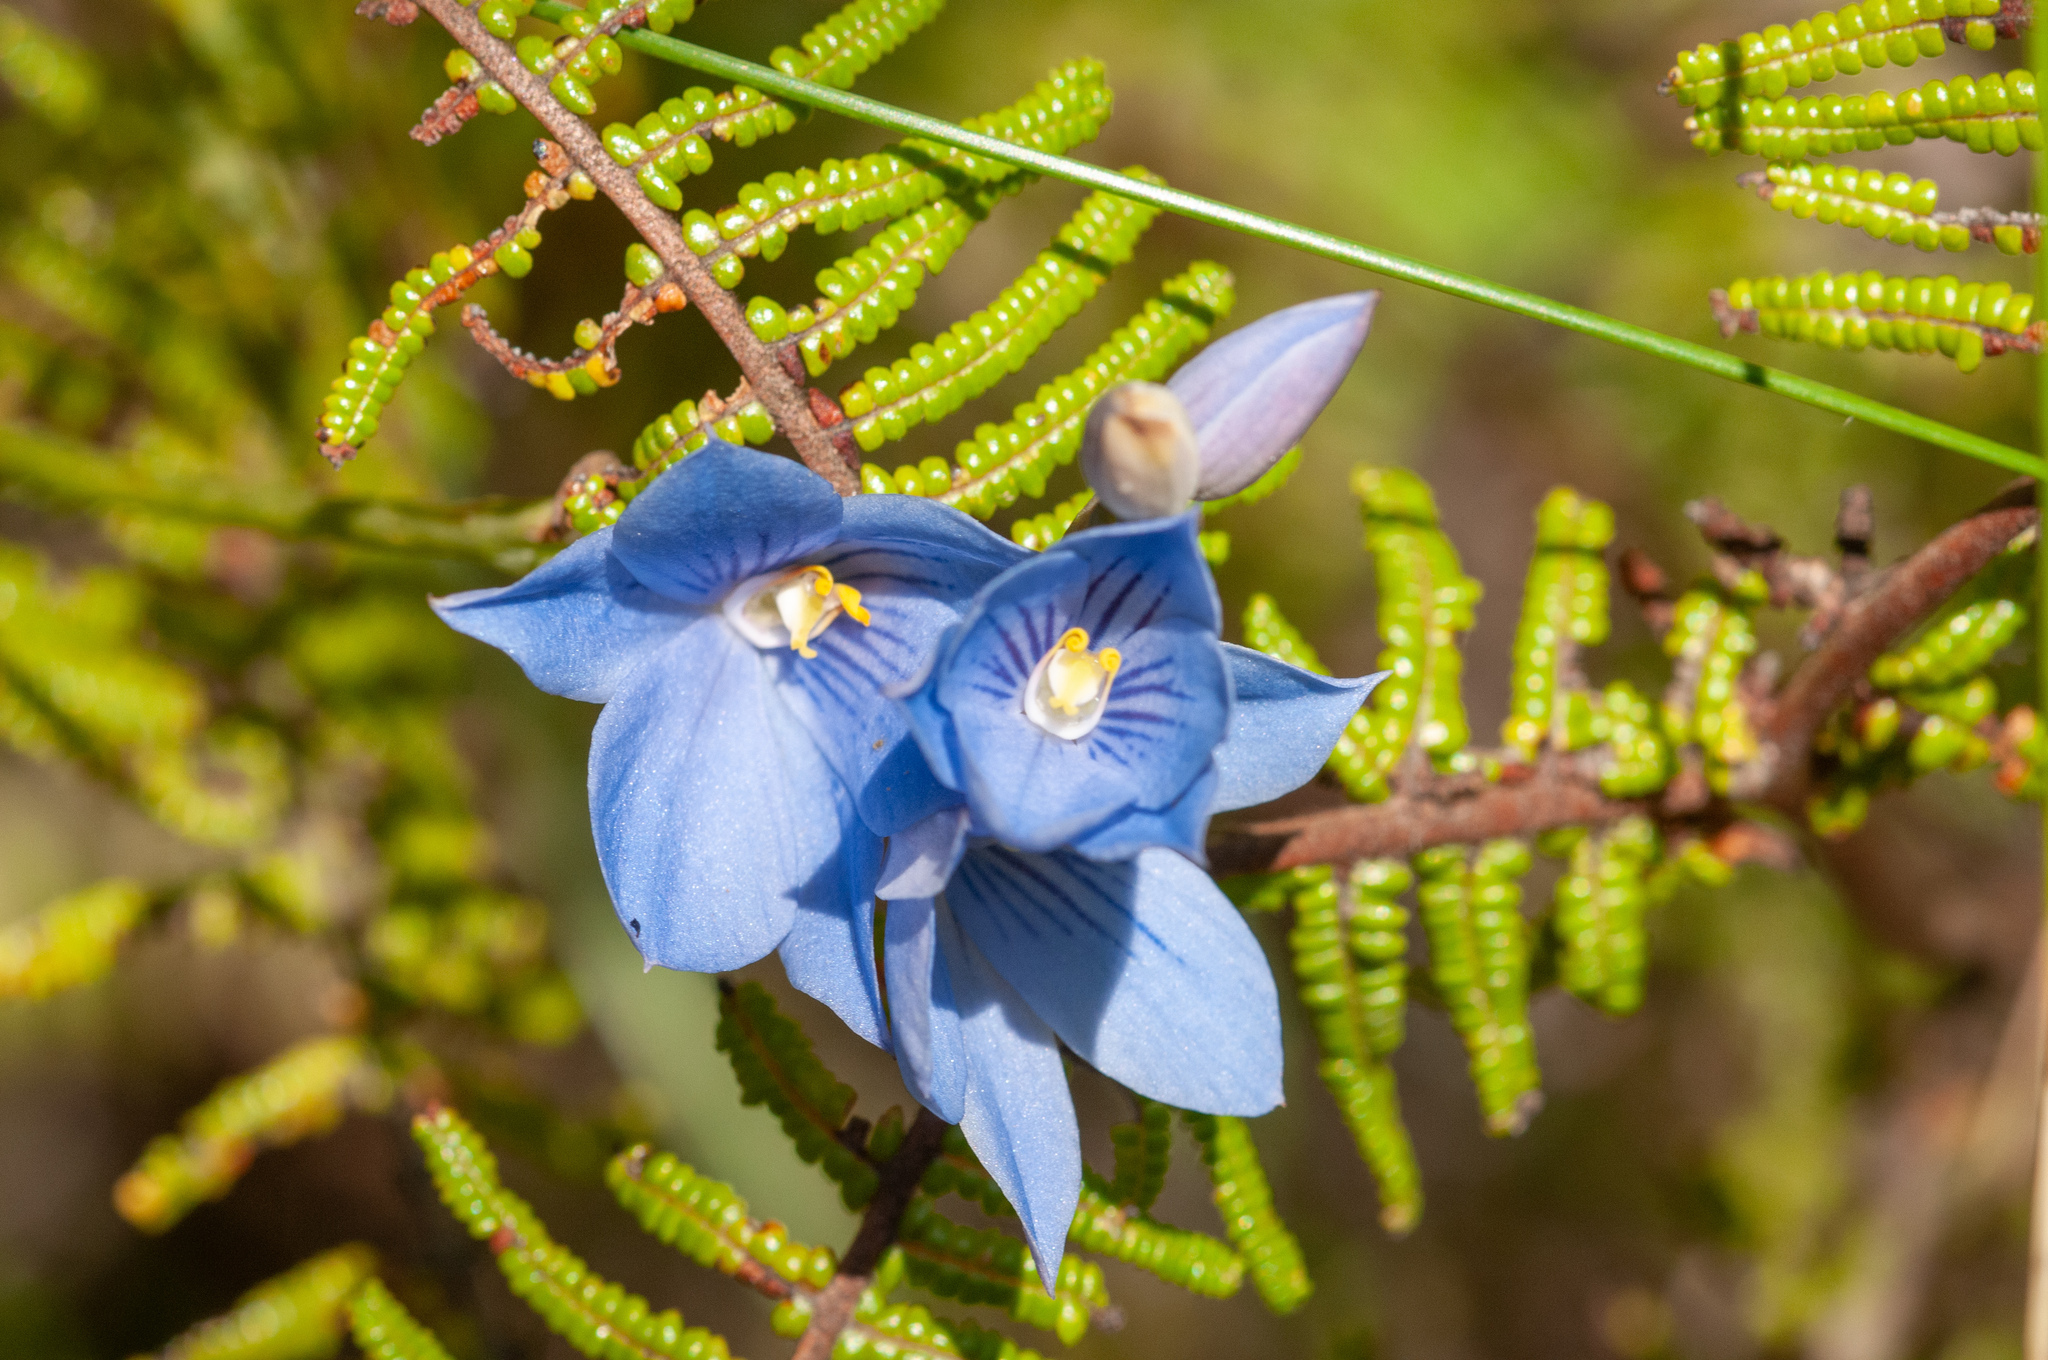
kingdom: Plantae
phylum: Tracheophyta
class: Liliopsida
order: Asparagales
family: Orchidaceae
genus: Thelymitra
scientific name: Thelymitra venosa
